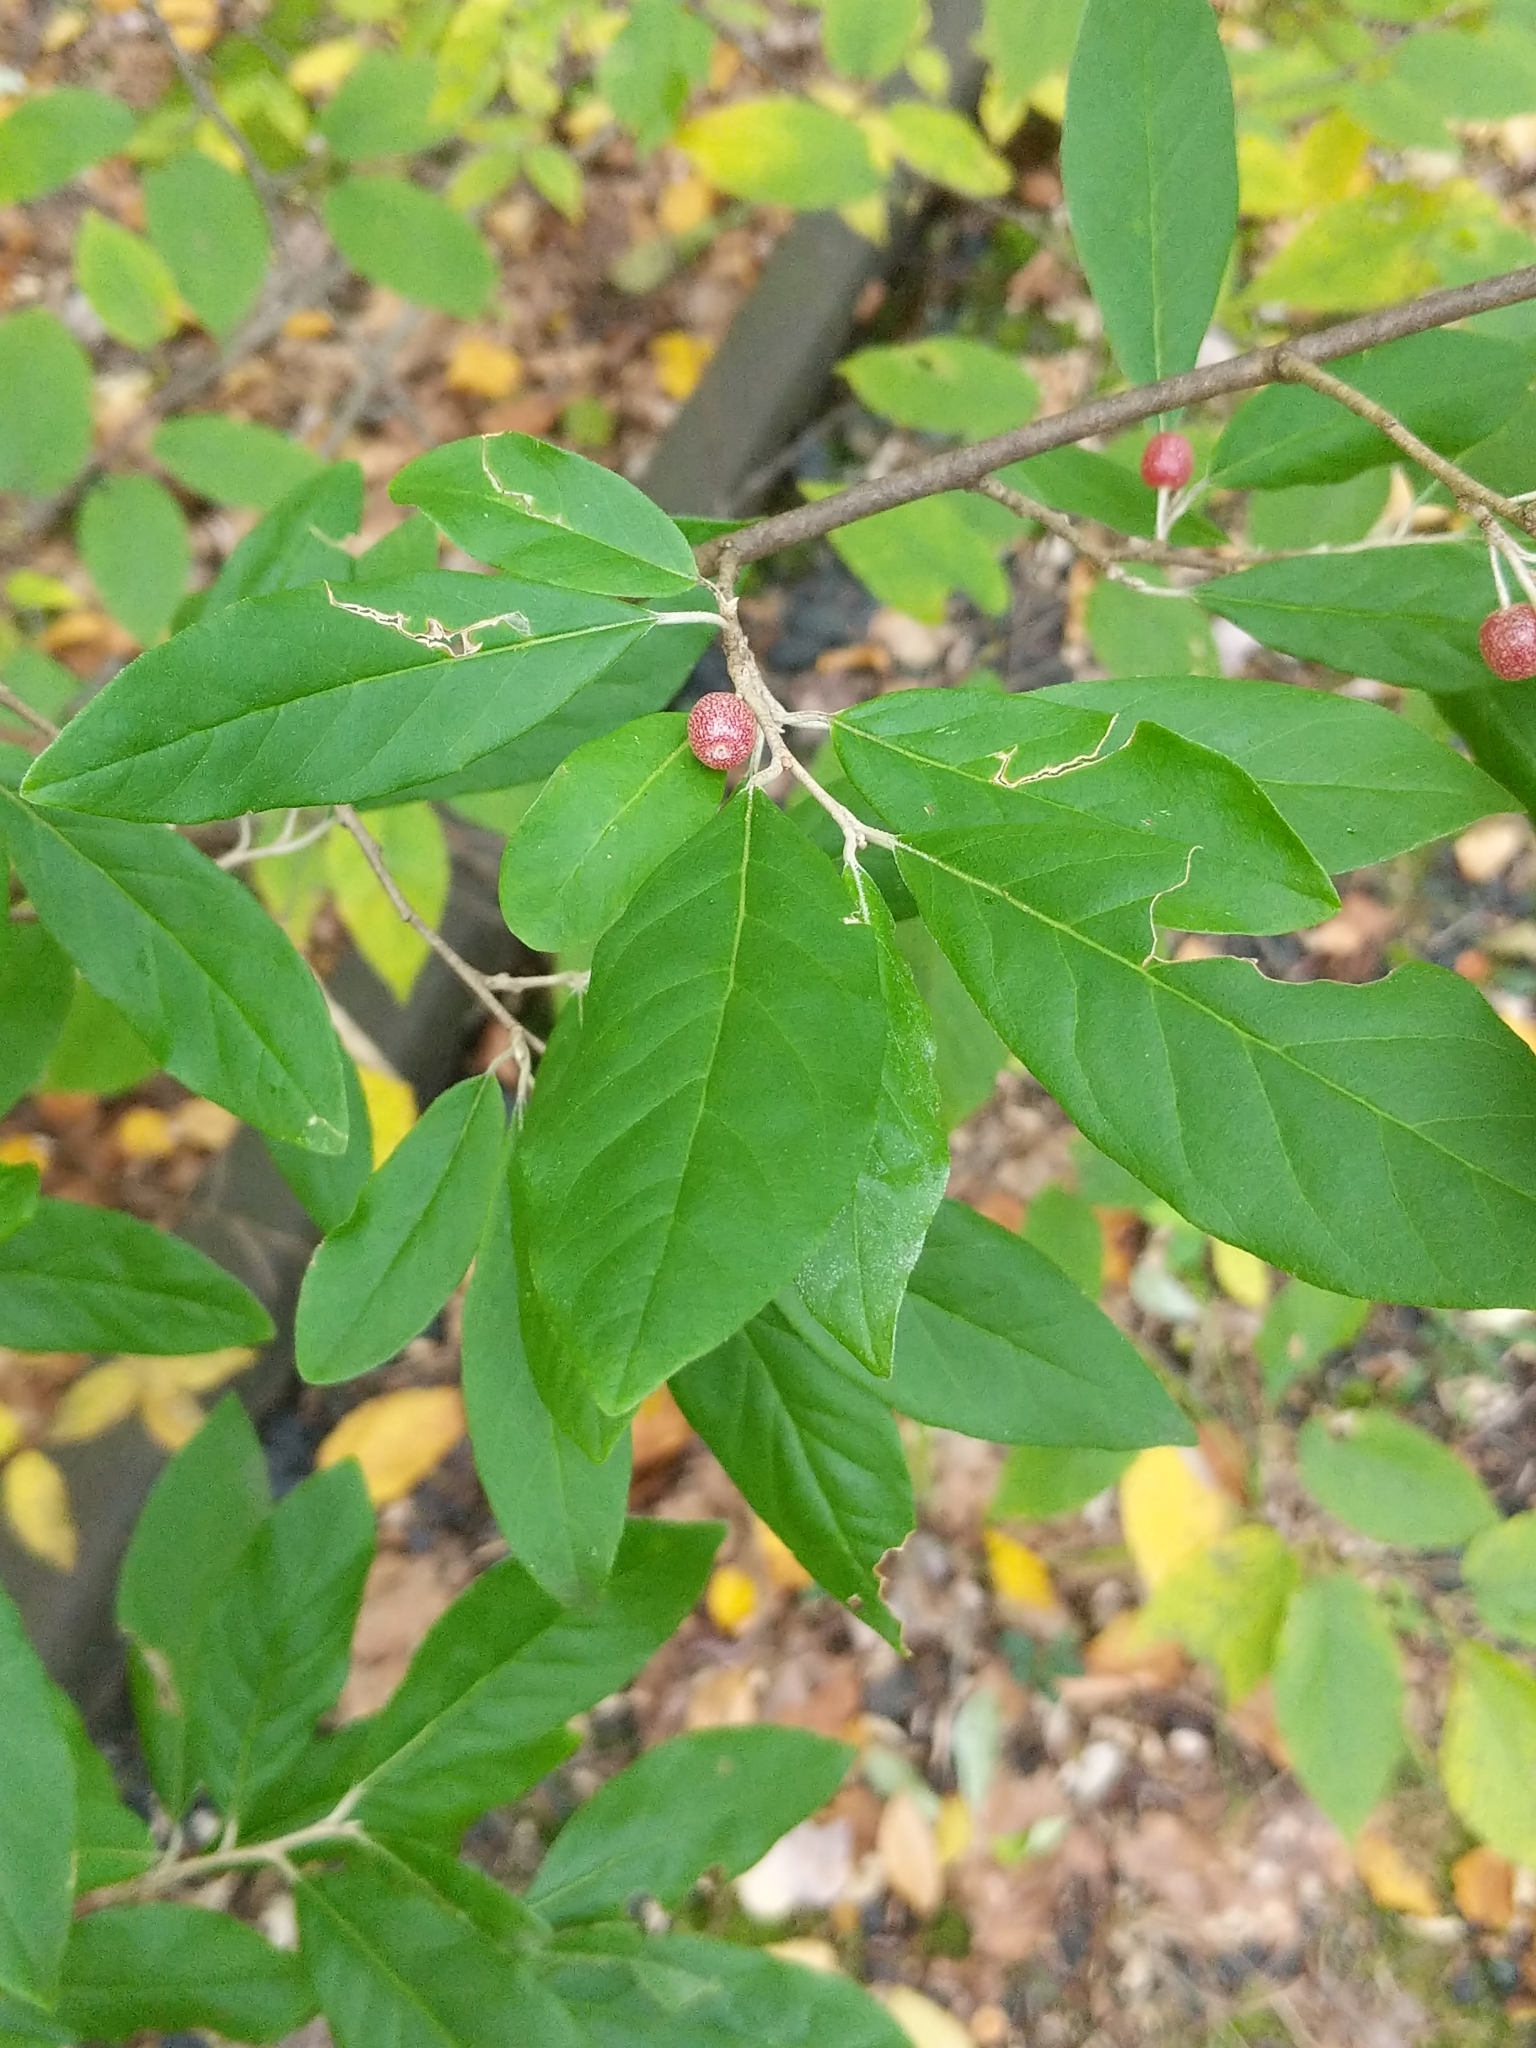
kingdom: Plantae
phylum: Tracheophyta
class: Magnoliopsida
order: Rosales
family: Elaeagnaceae
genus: Elaeagnus
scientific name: Elaeagnus umbellata
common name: Autumn olive
